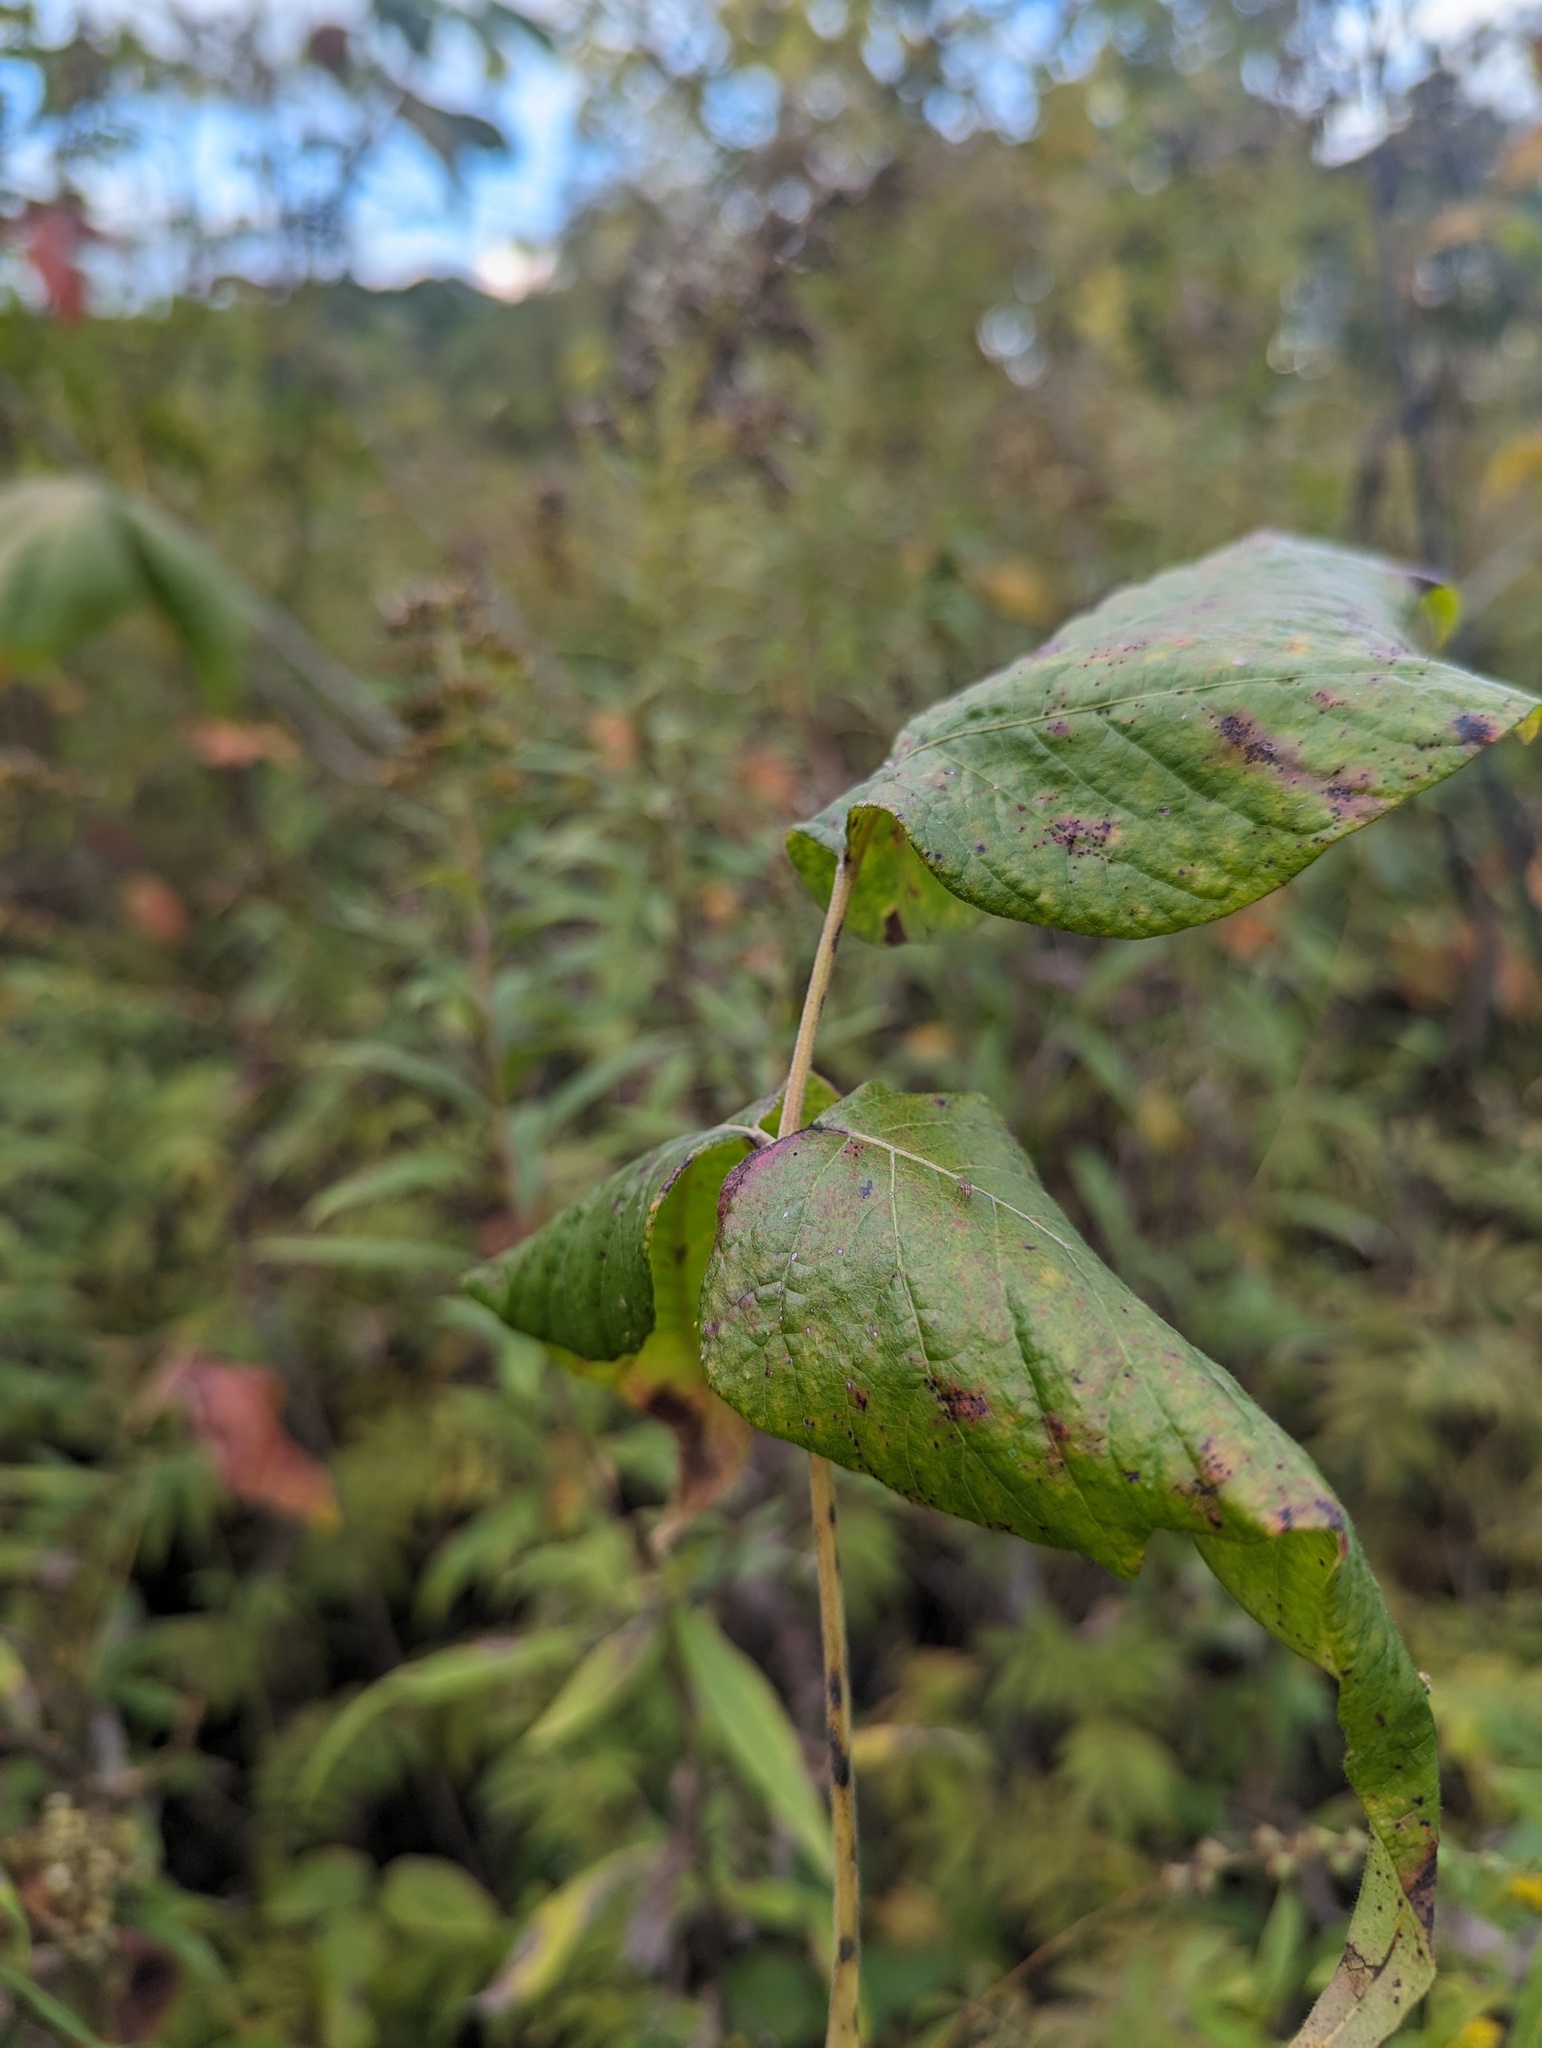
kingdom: Plantae
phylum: Tracheophyta
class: Magnoliopsida
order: Sapindales
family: Anacardiaceae
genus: Toxicodendron
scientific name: Toxicodendron radicans
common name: Poison ivy
